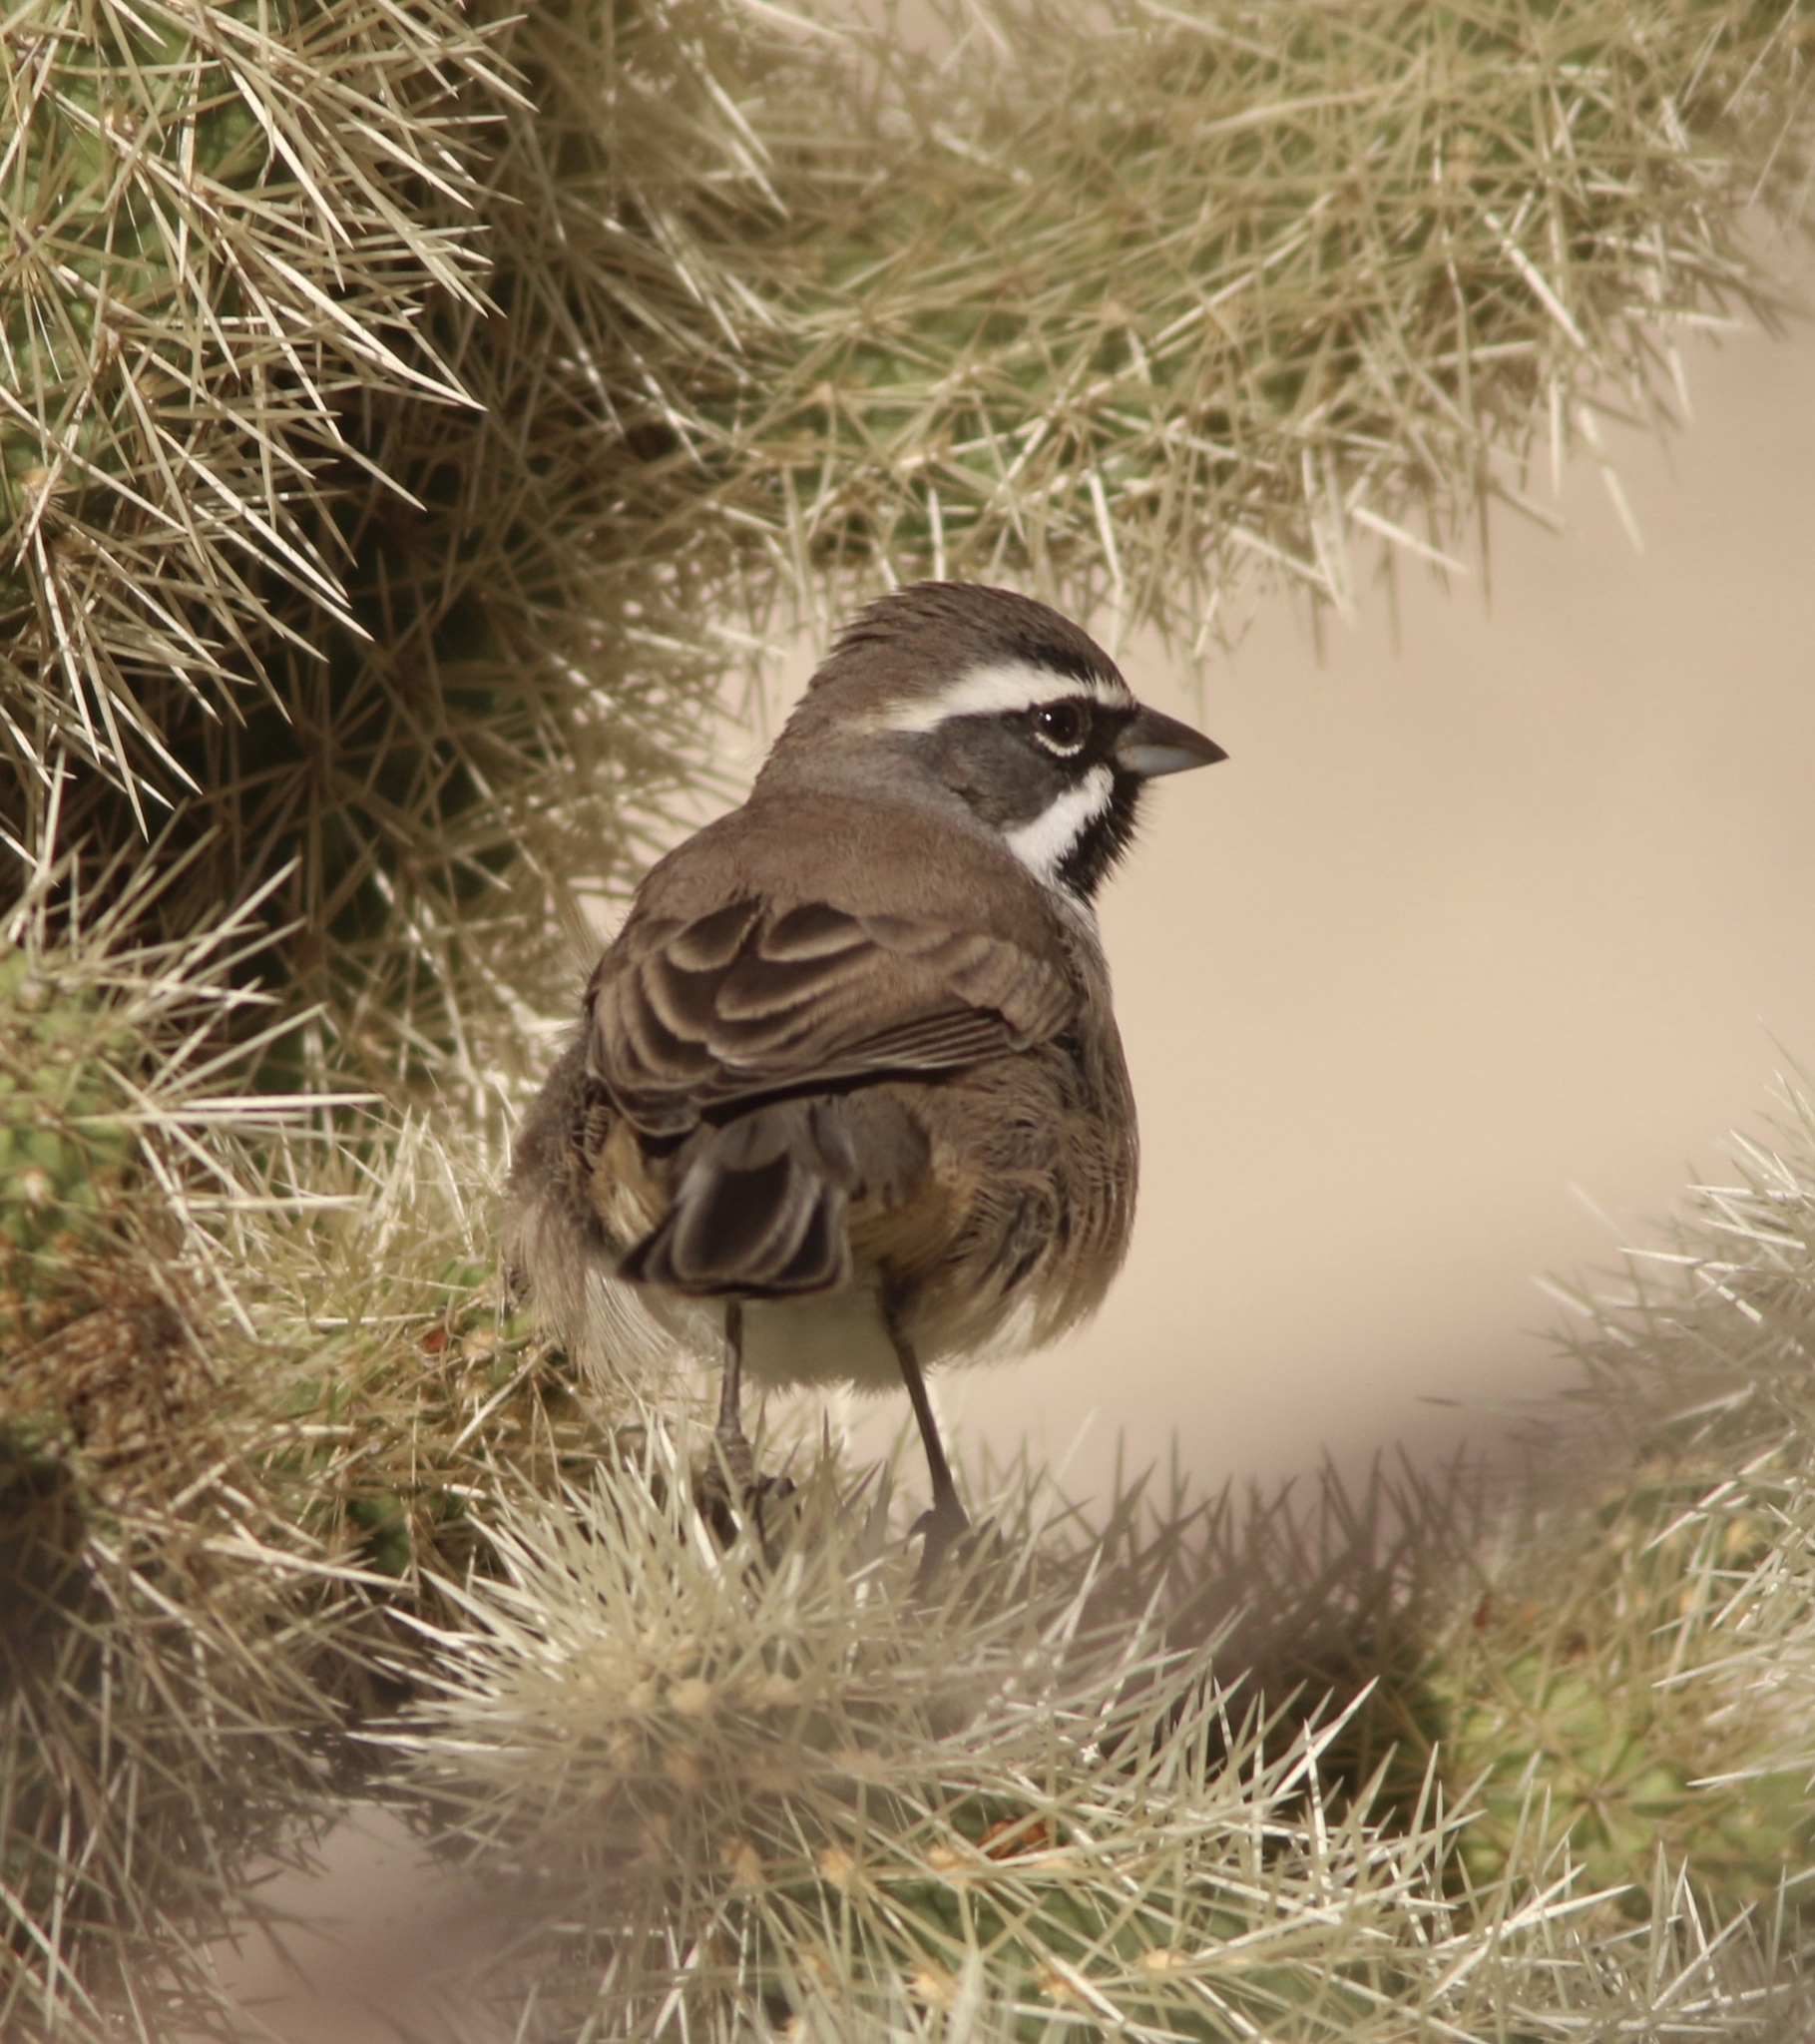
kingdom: Animalia
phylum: Chordata
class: Aves
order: Passeriformes
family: Passerellidae
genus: Amphispiza
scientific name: Amphispiza bilineata
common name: Black-throated sparrow
